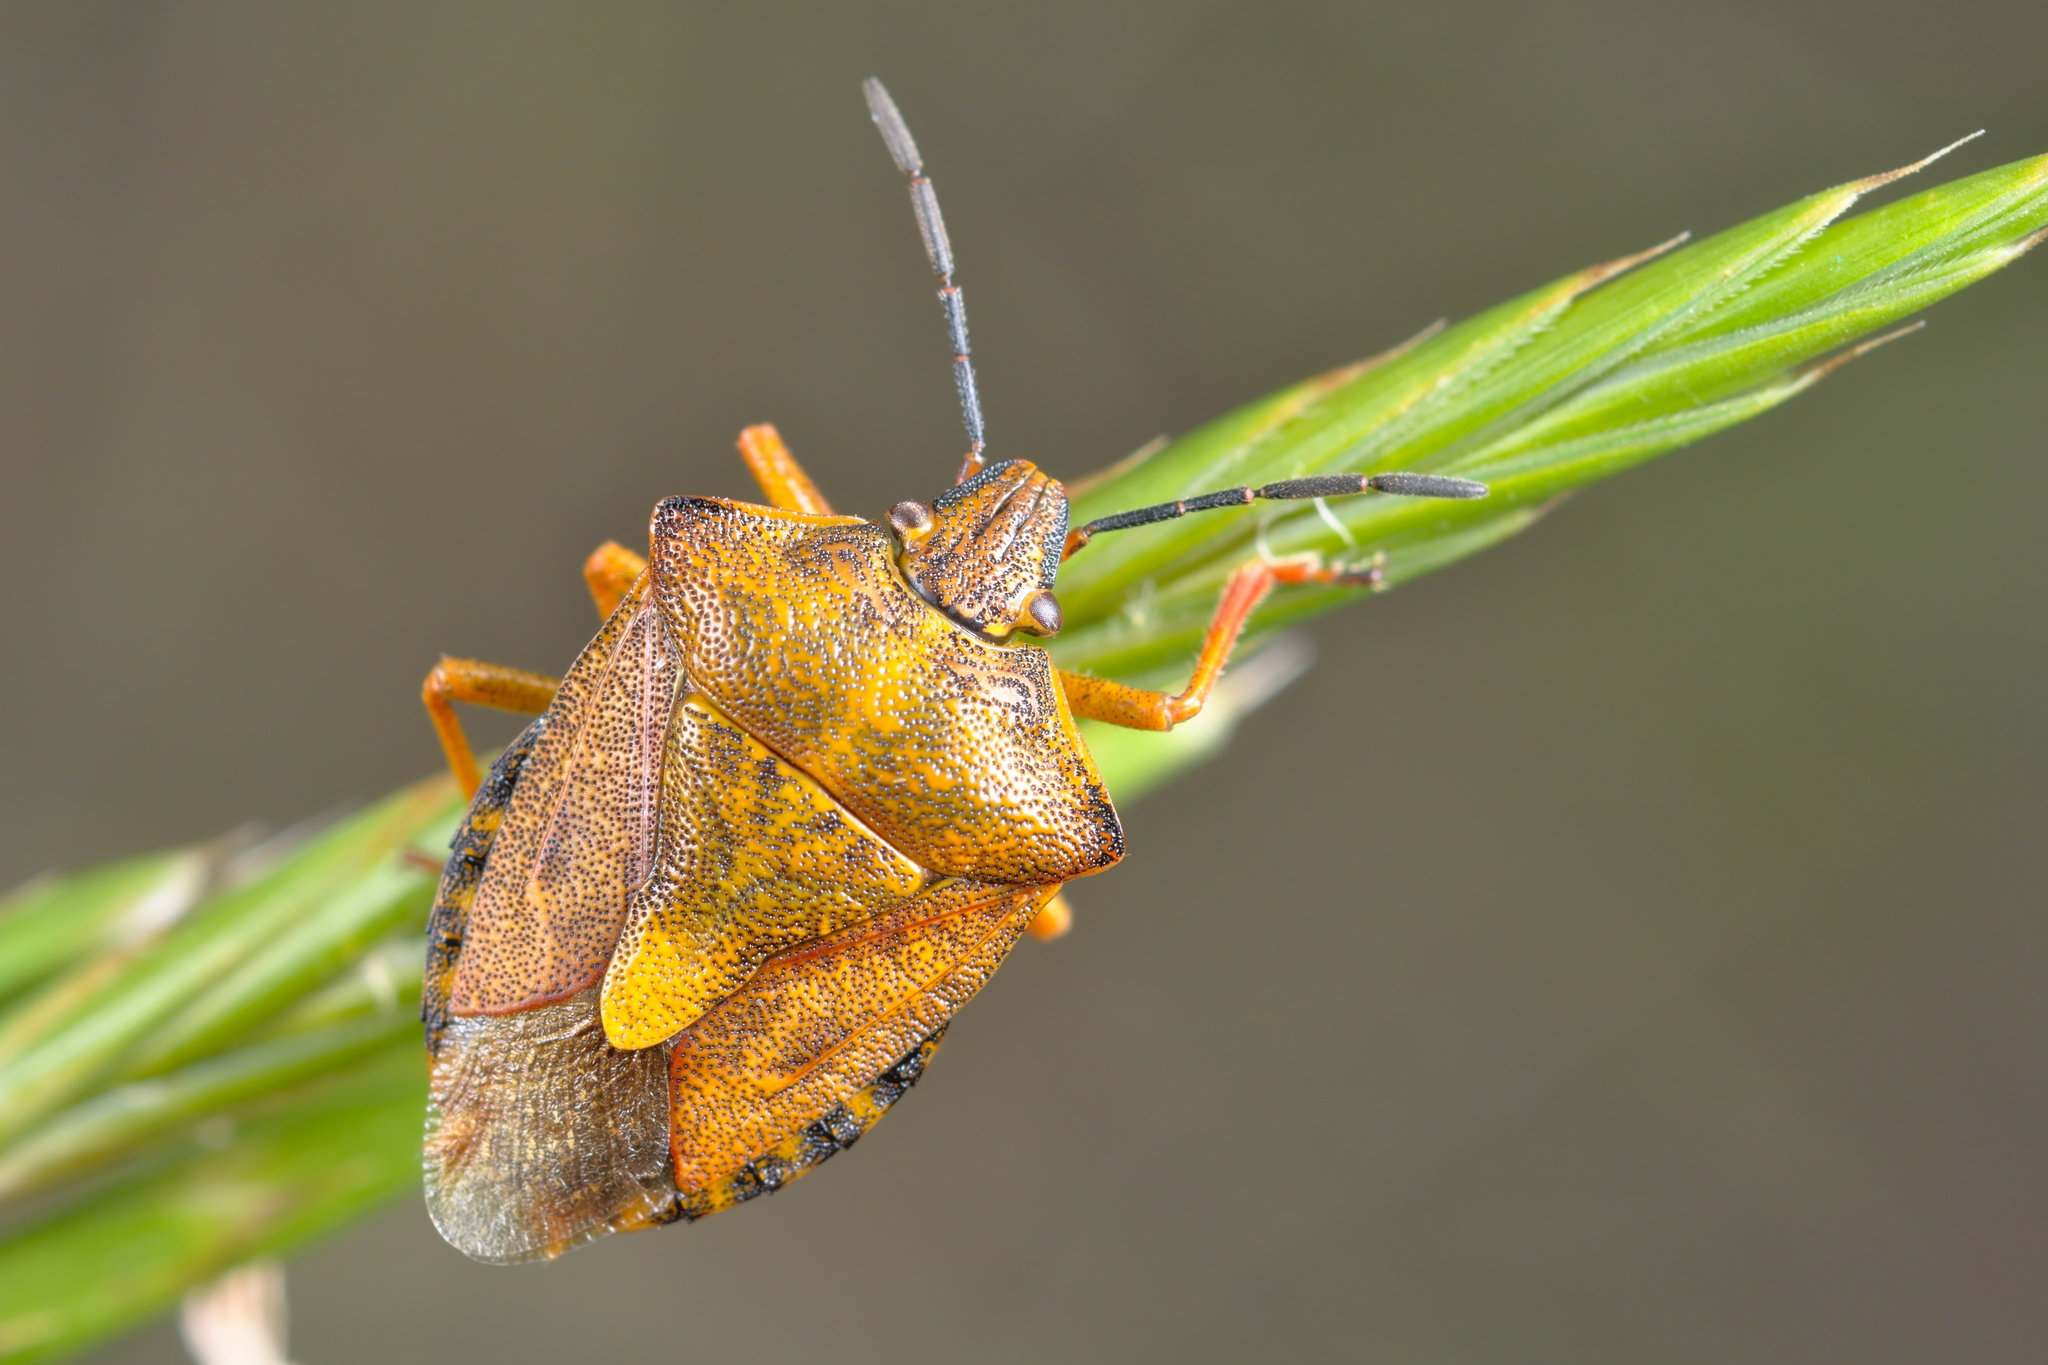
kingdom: Animalia
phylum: Arthropoda
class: Insecta
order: Hemiptera
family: Pentatomidae
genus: Carpocoris
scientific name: Carpocoris purpureipennis
